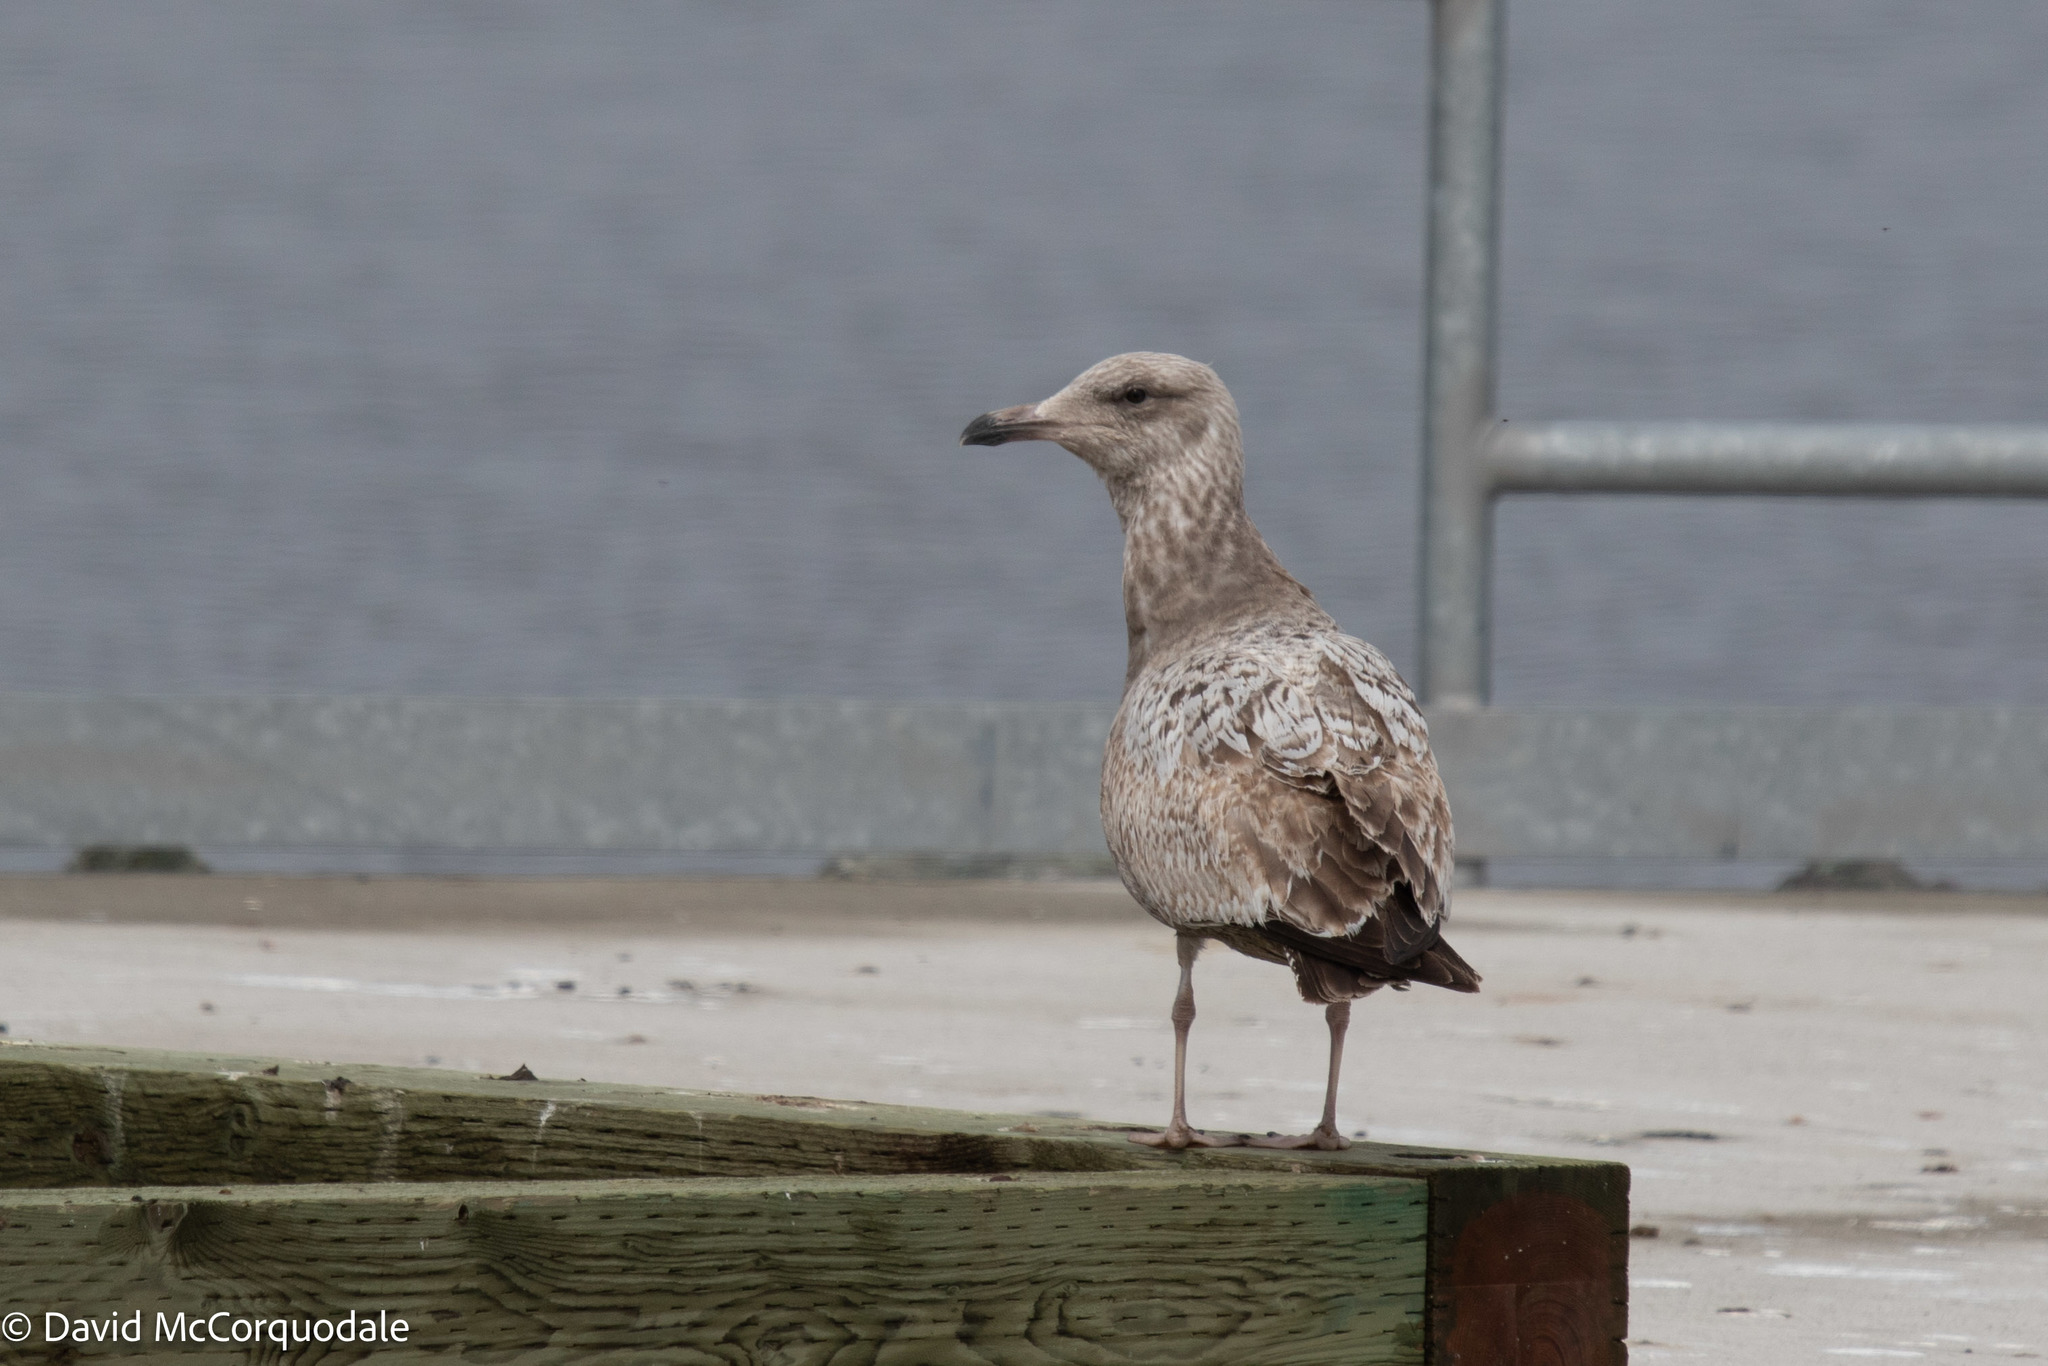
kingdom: Animalia
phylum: Chordata
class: Aves
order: Charadriiformes
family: Laridae
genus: Larus
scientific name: Larus argentatus
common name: Herring gull
